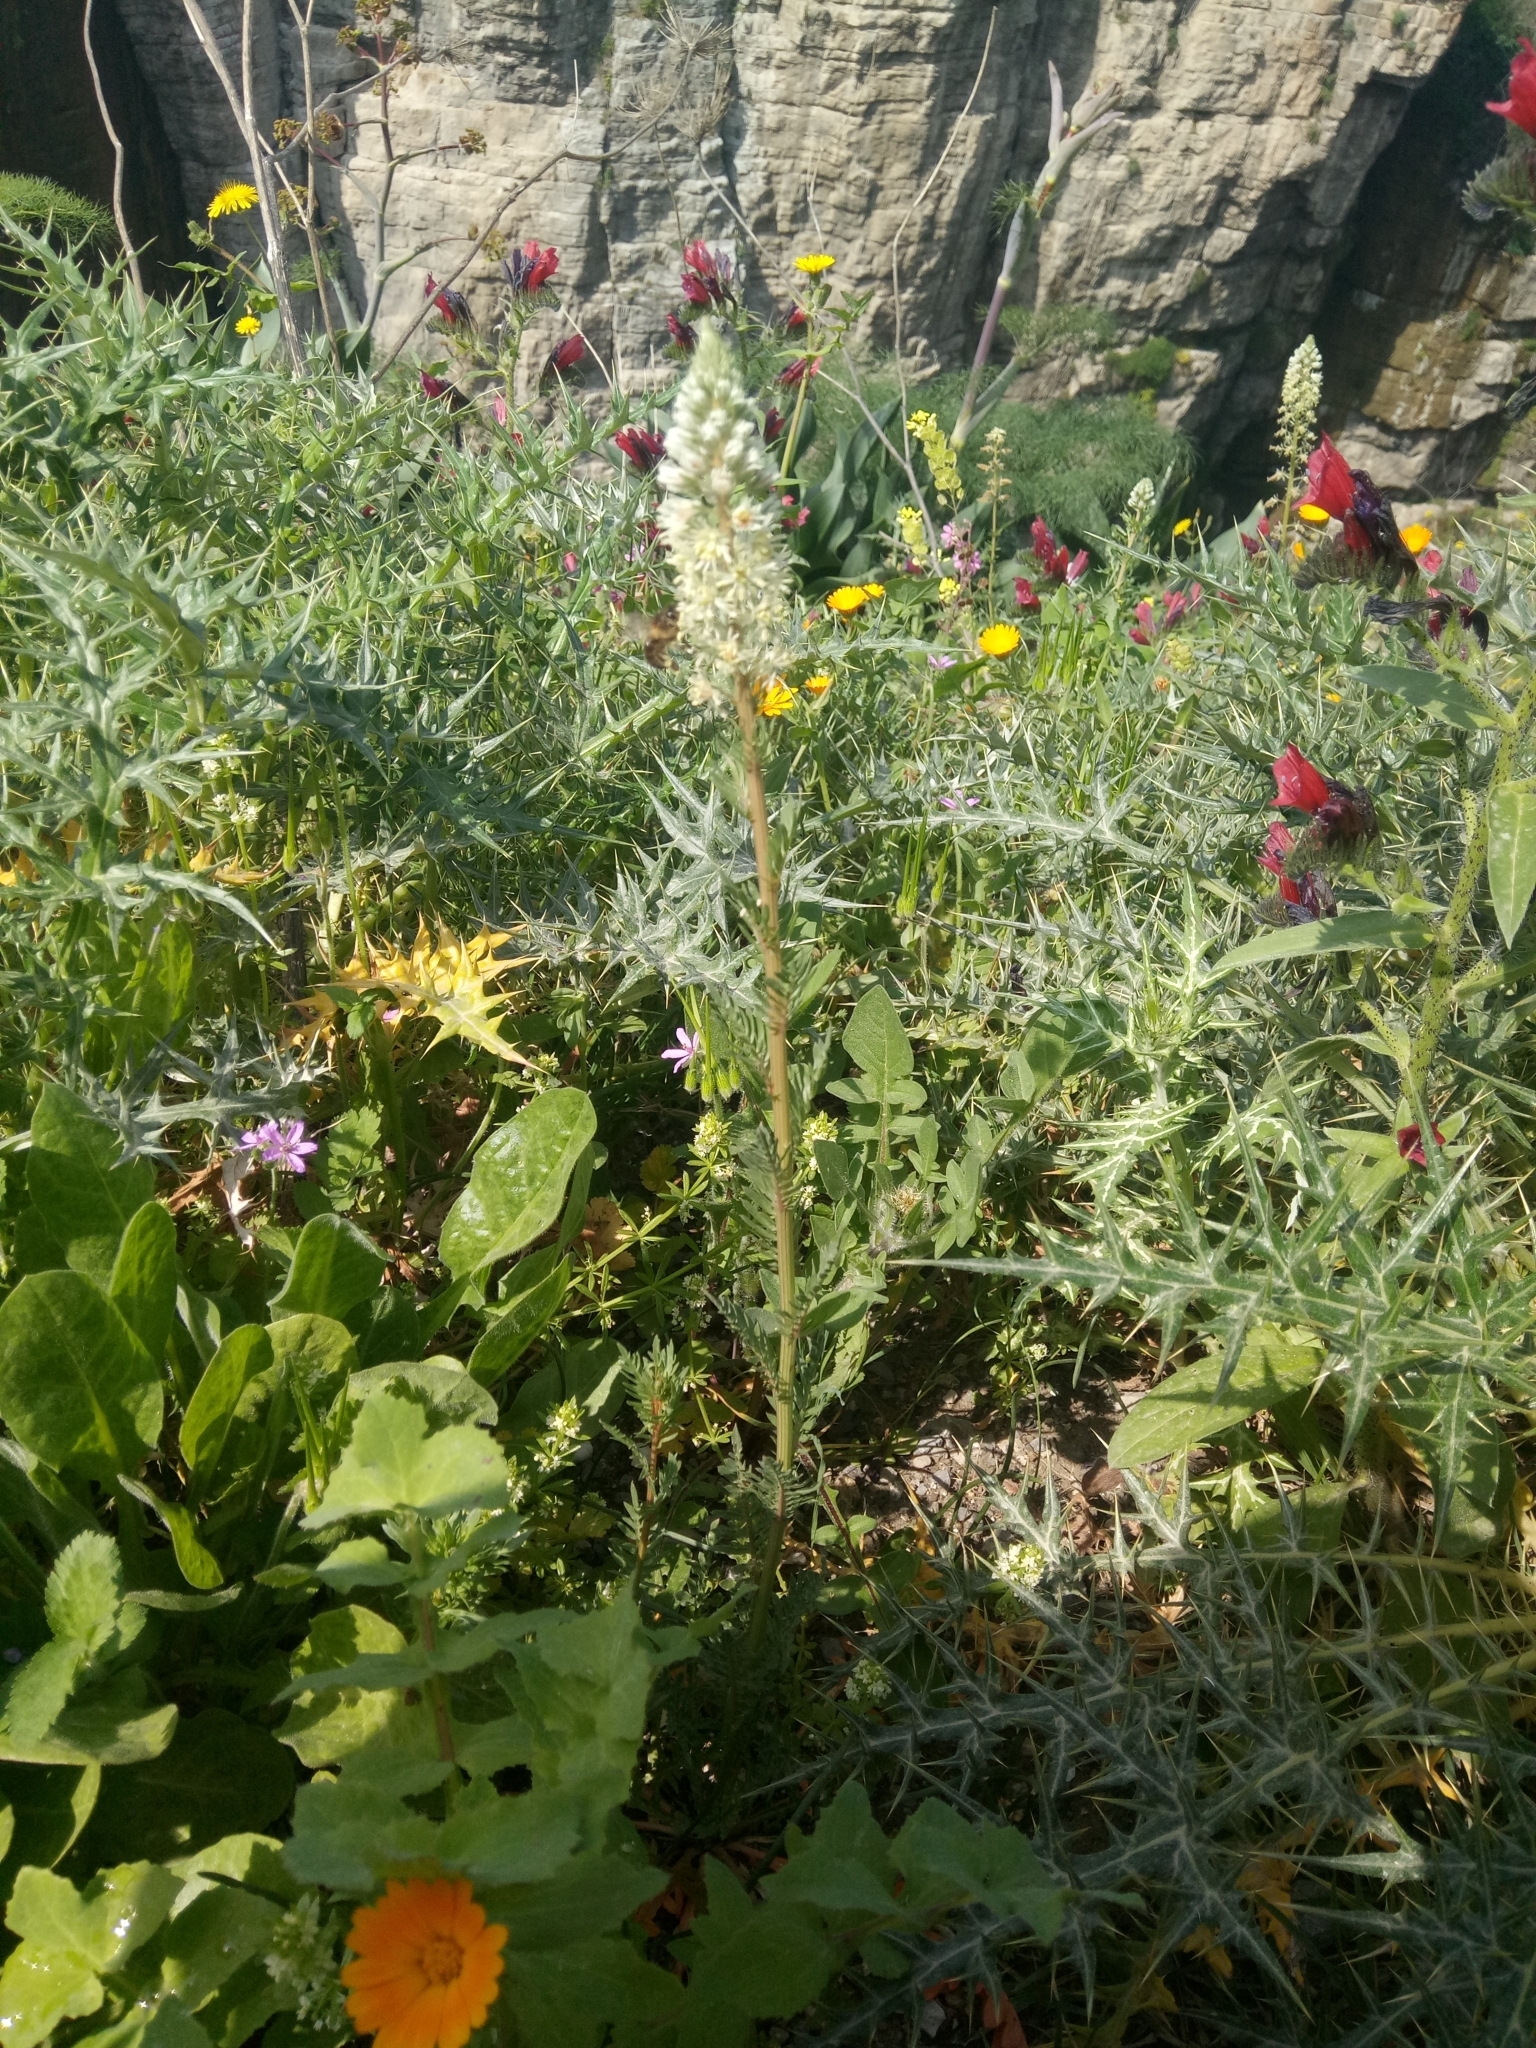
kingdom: Plantae
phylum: Tracheophyta
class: Magnoliopsida
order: Brassicales
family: Resedaceae
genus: Reseda
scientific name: Reseda alba
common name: White mignonette
